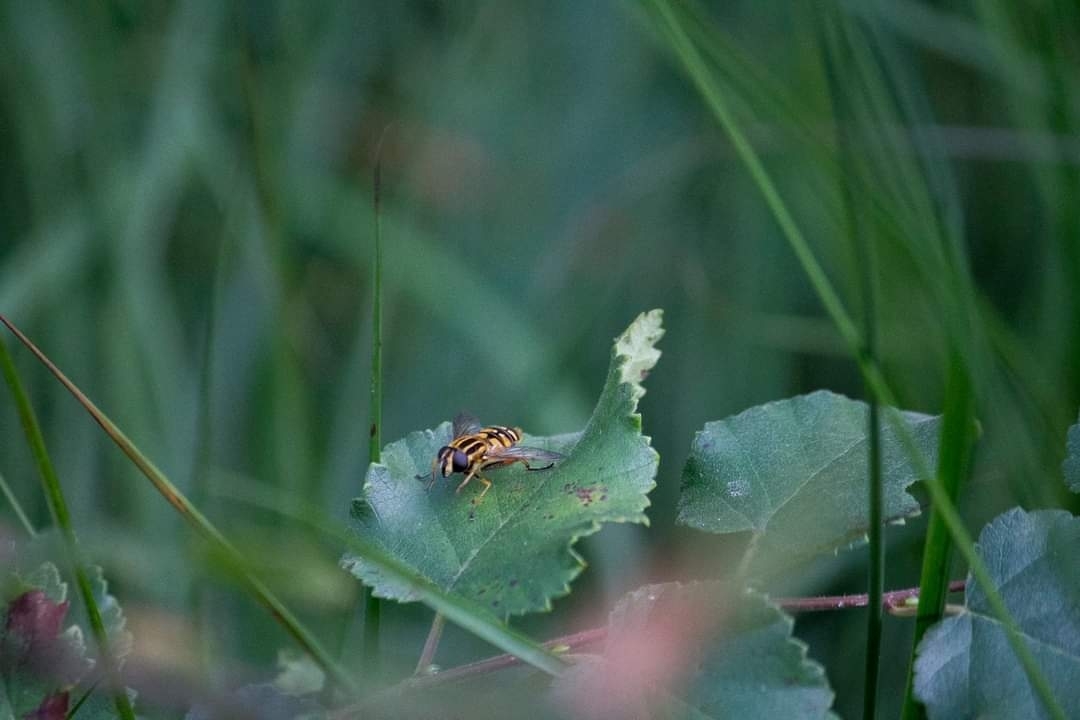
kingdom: Animalia
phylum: Arthropoda
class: Insecta
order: Diptera
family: Syrphidae
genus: Helophilus
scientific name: Helophilus pendulus
